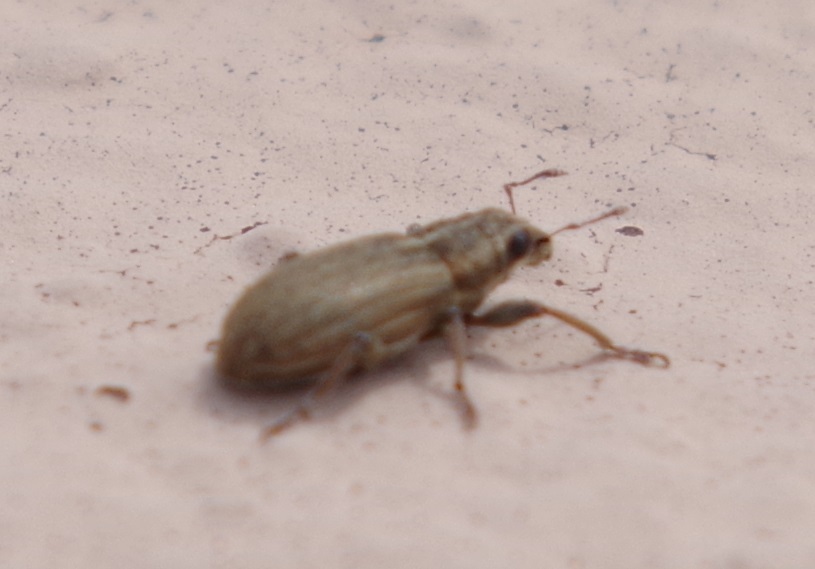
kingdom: Animalia
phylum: Arthropoda
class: Insecta
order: Coleoptera
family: Curculionidae
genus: Sitona
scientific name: Sitona lineatus
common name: Weevil
